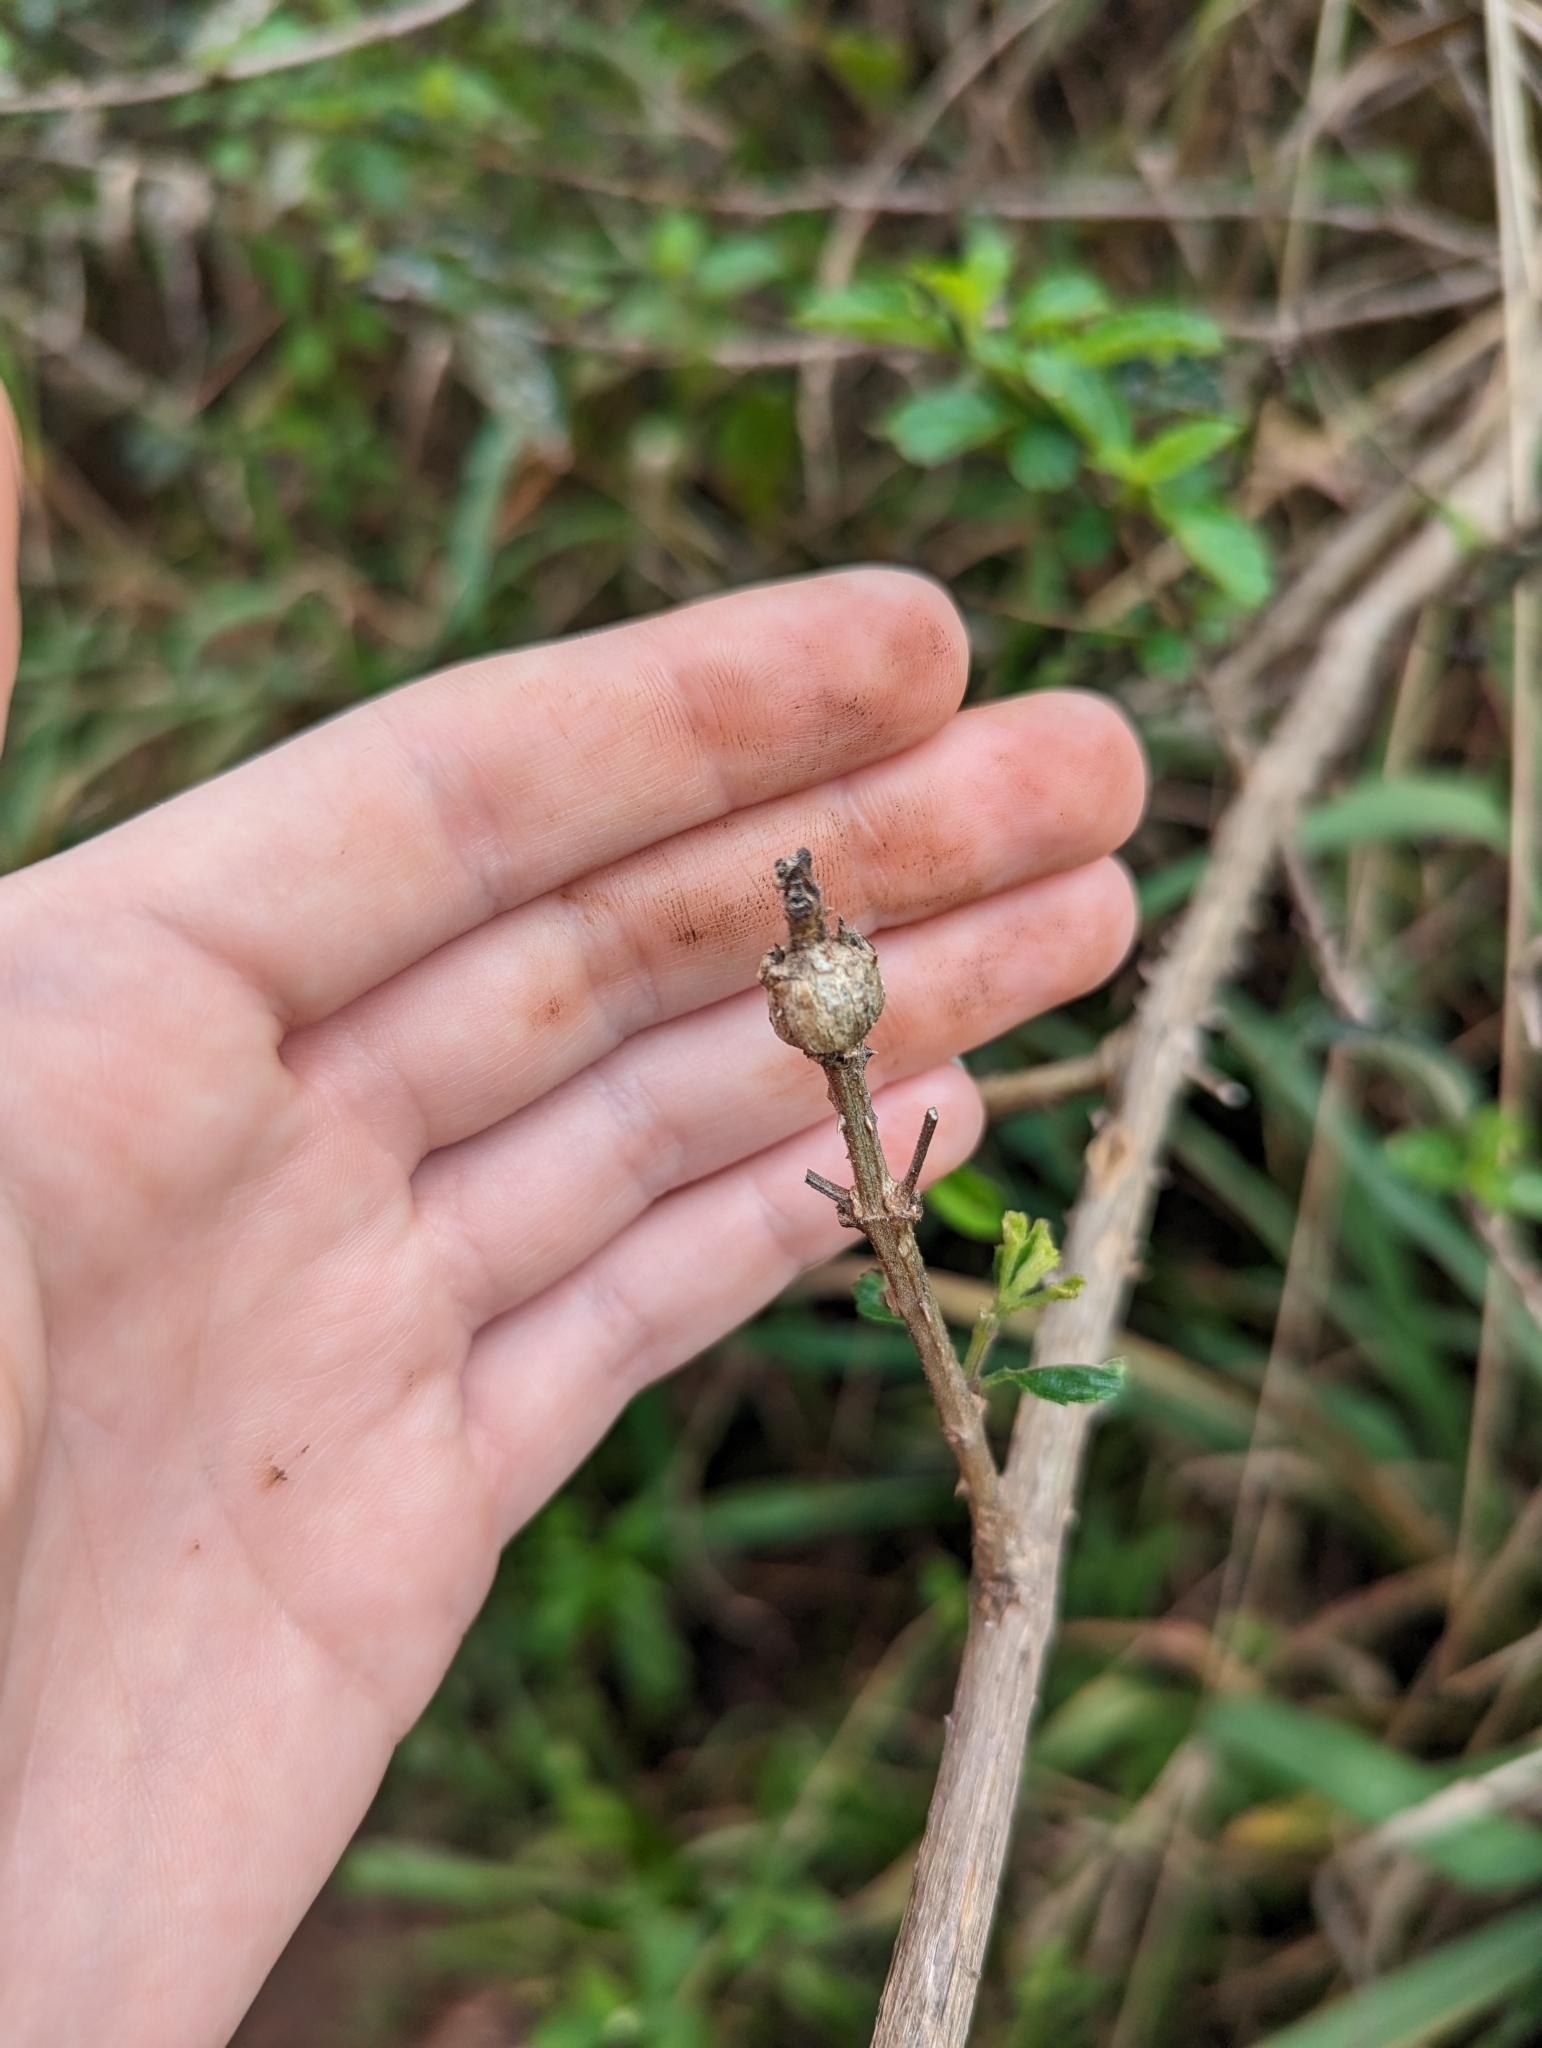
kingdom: Animalia
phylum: Arthropoda
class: Insecta
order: Diptera
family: Tephritidae
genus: Eutreta
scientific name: Eutreta xanthochaeta
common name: Lantana gall fly
